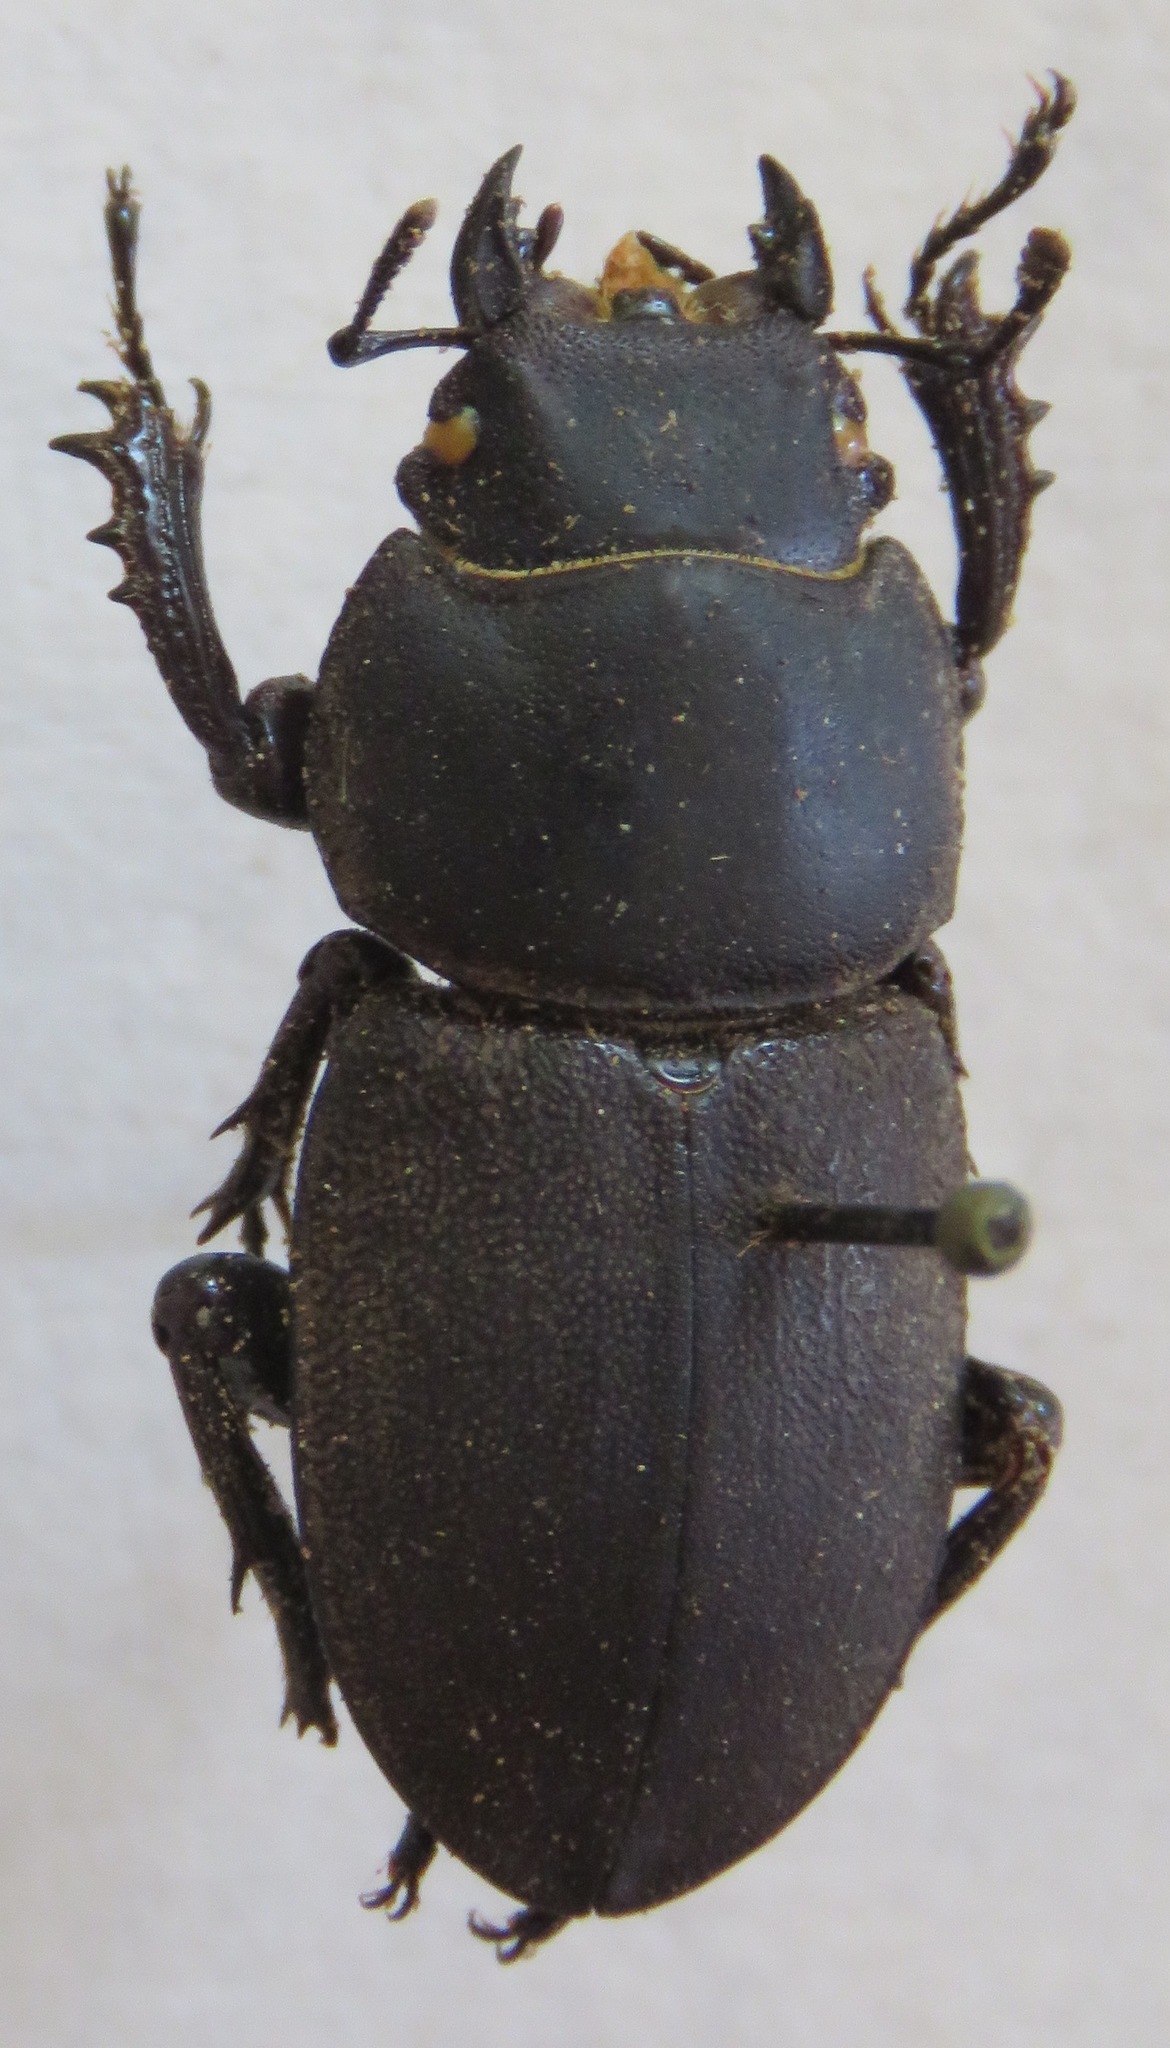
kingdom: Animalia
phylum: Arthropoda
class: Insecta
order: Coleoptera
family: Lucanidae
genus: Apterodorcus
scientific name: Apterodorcus bacchus
